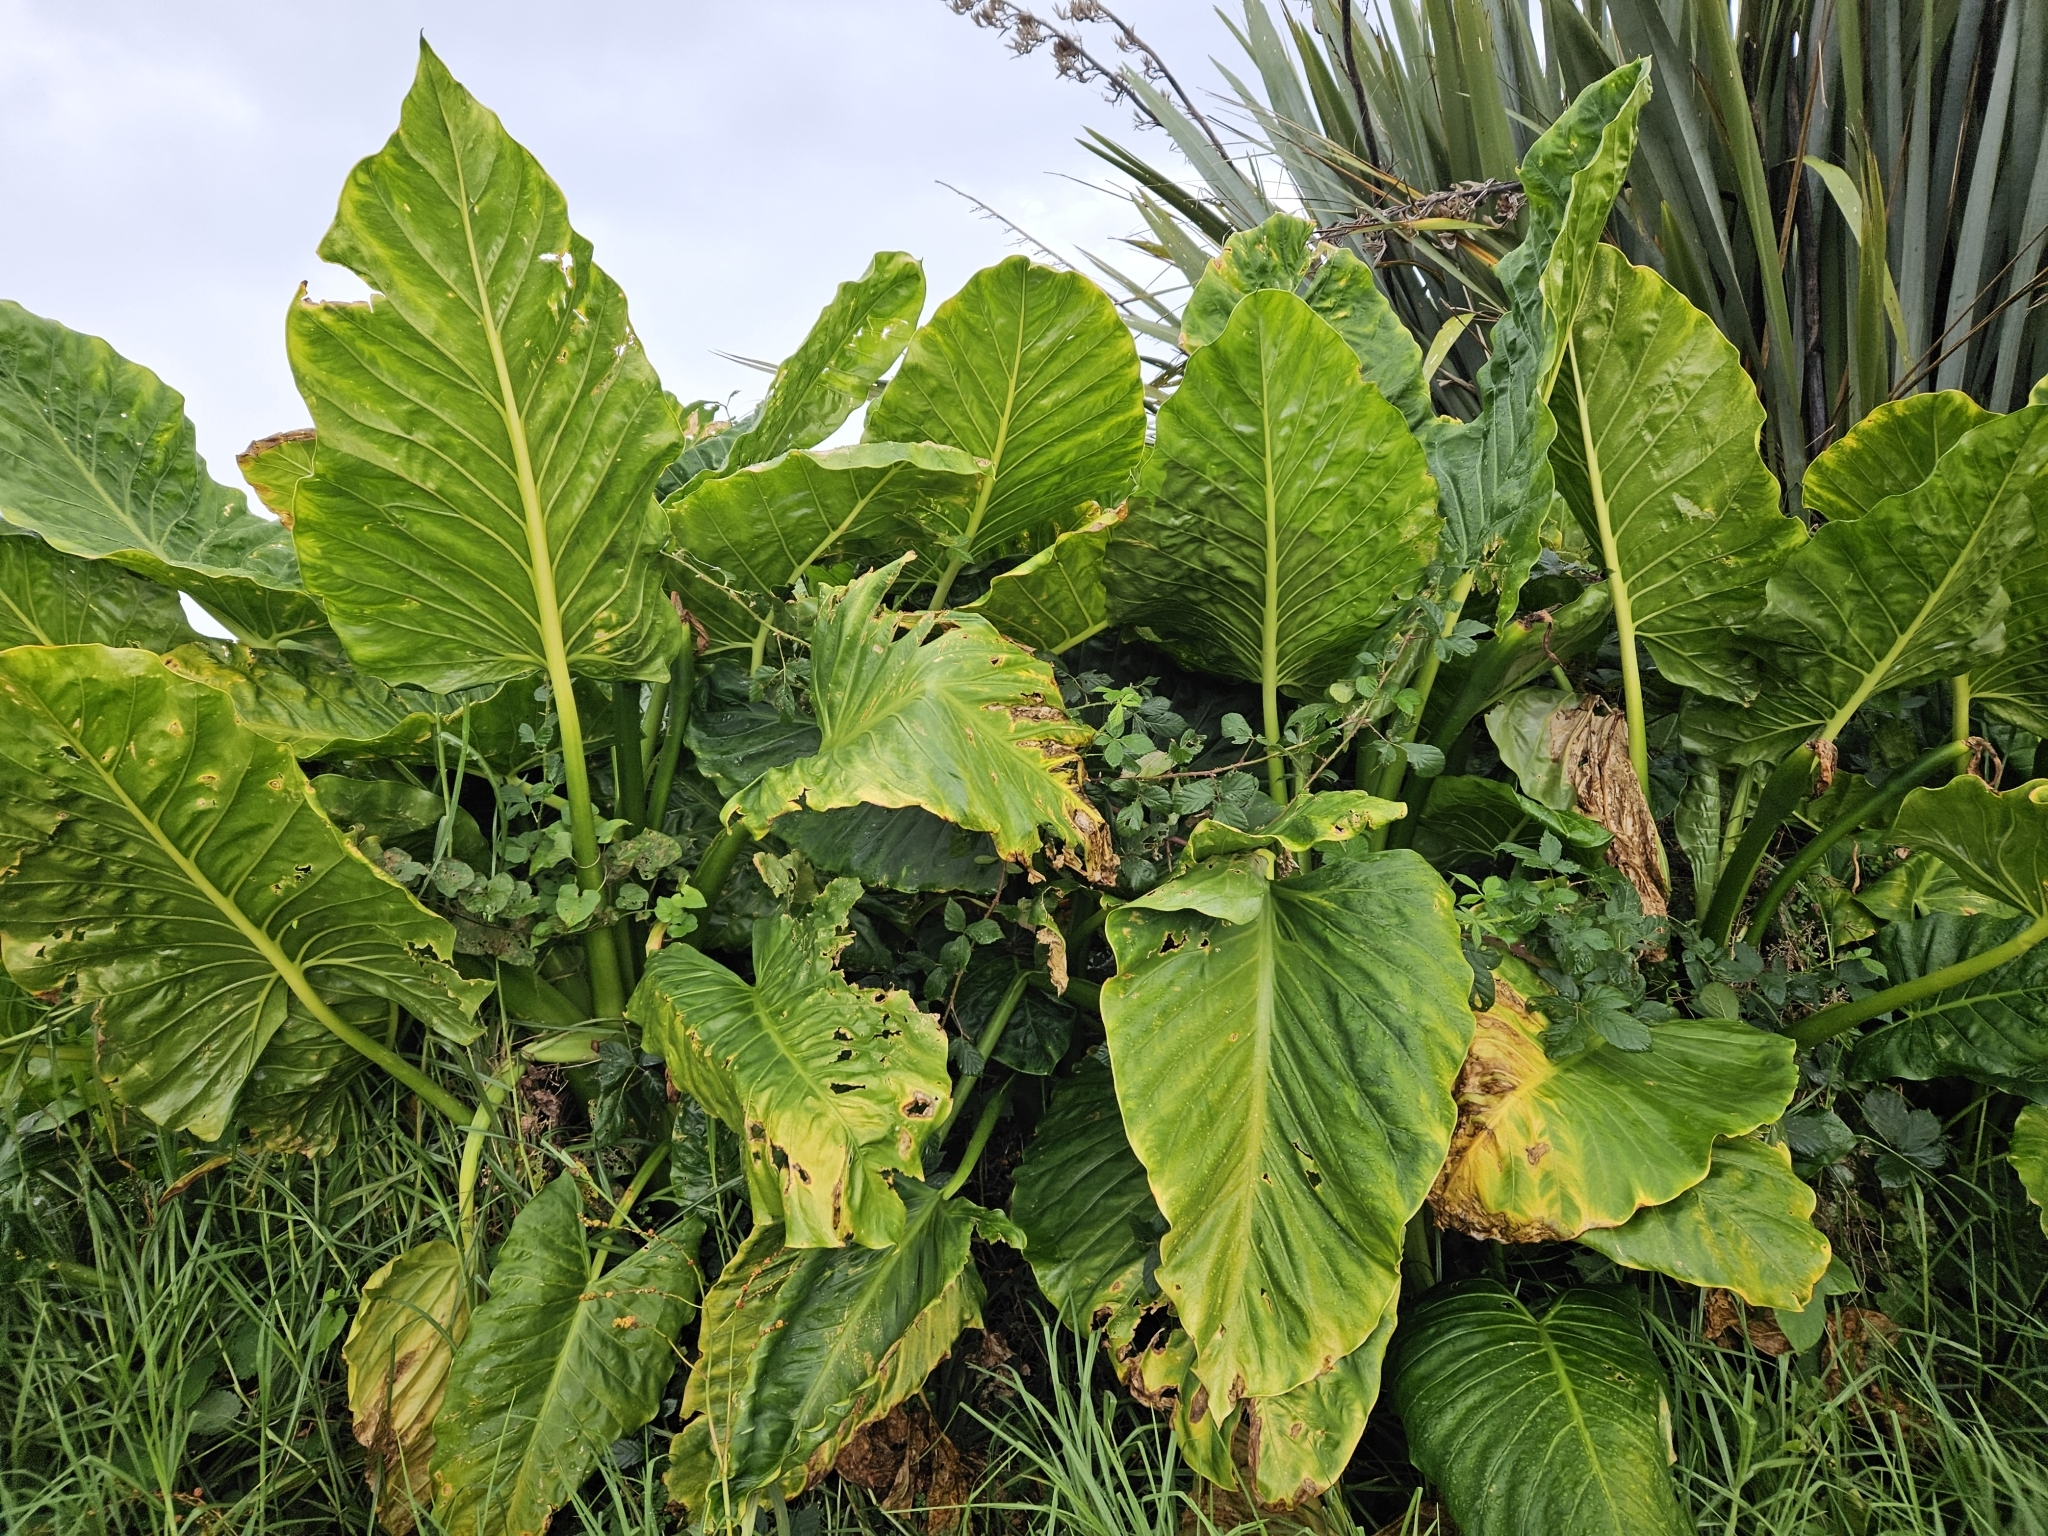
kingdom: Plantae
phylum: Tracheophyta
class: Liliopsida
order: Alismatales
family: Araceae
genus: Alocasia
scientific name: Alocasia brisbanensis
